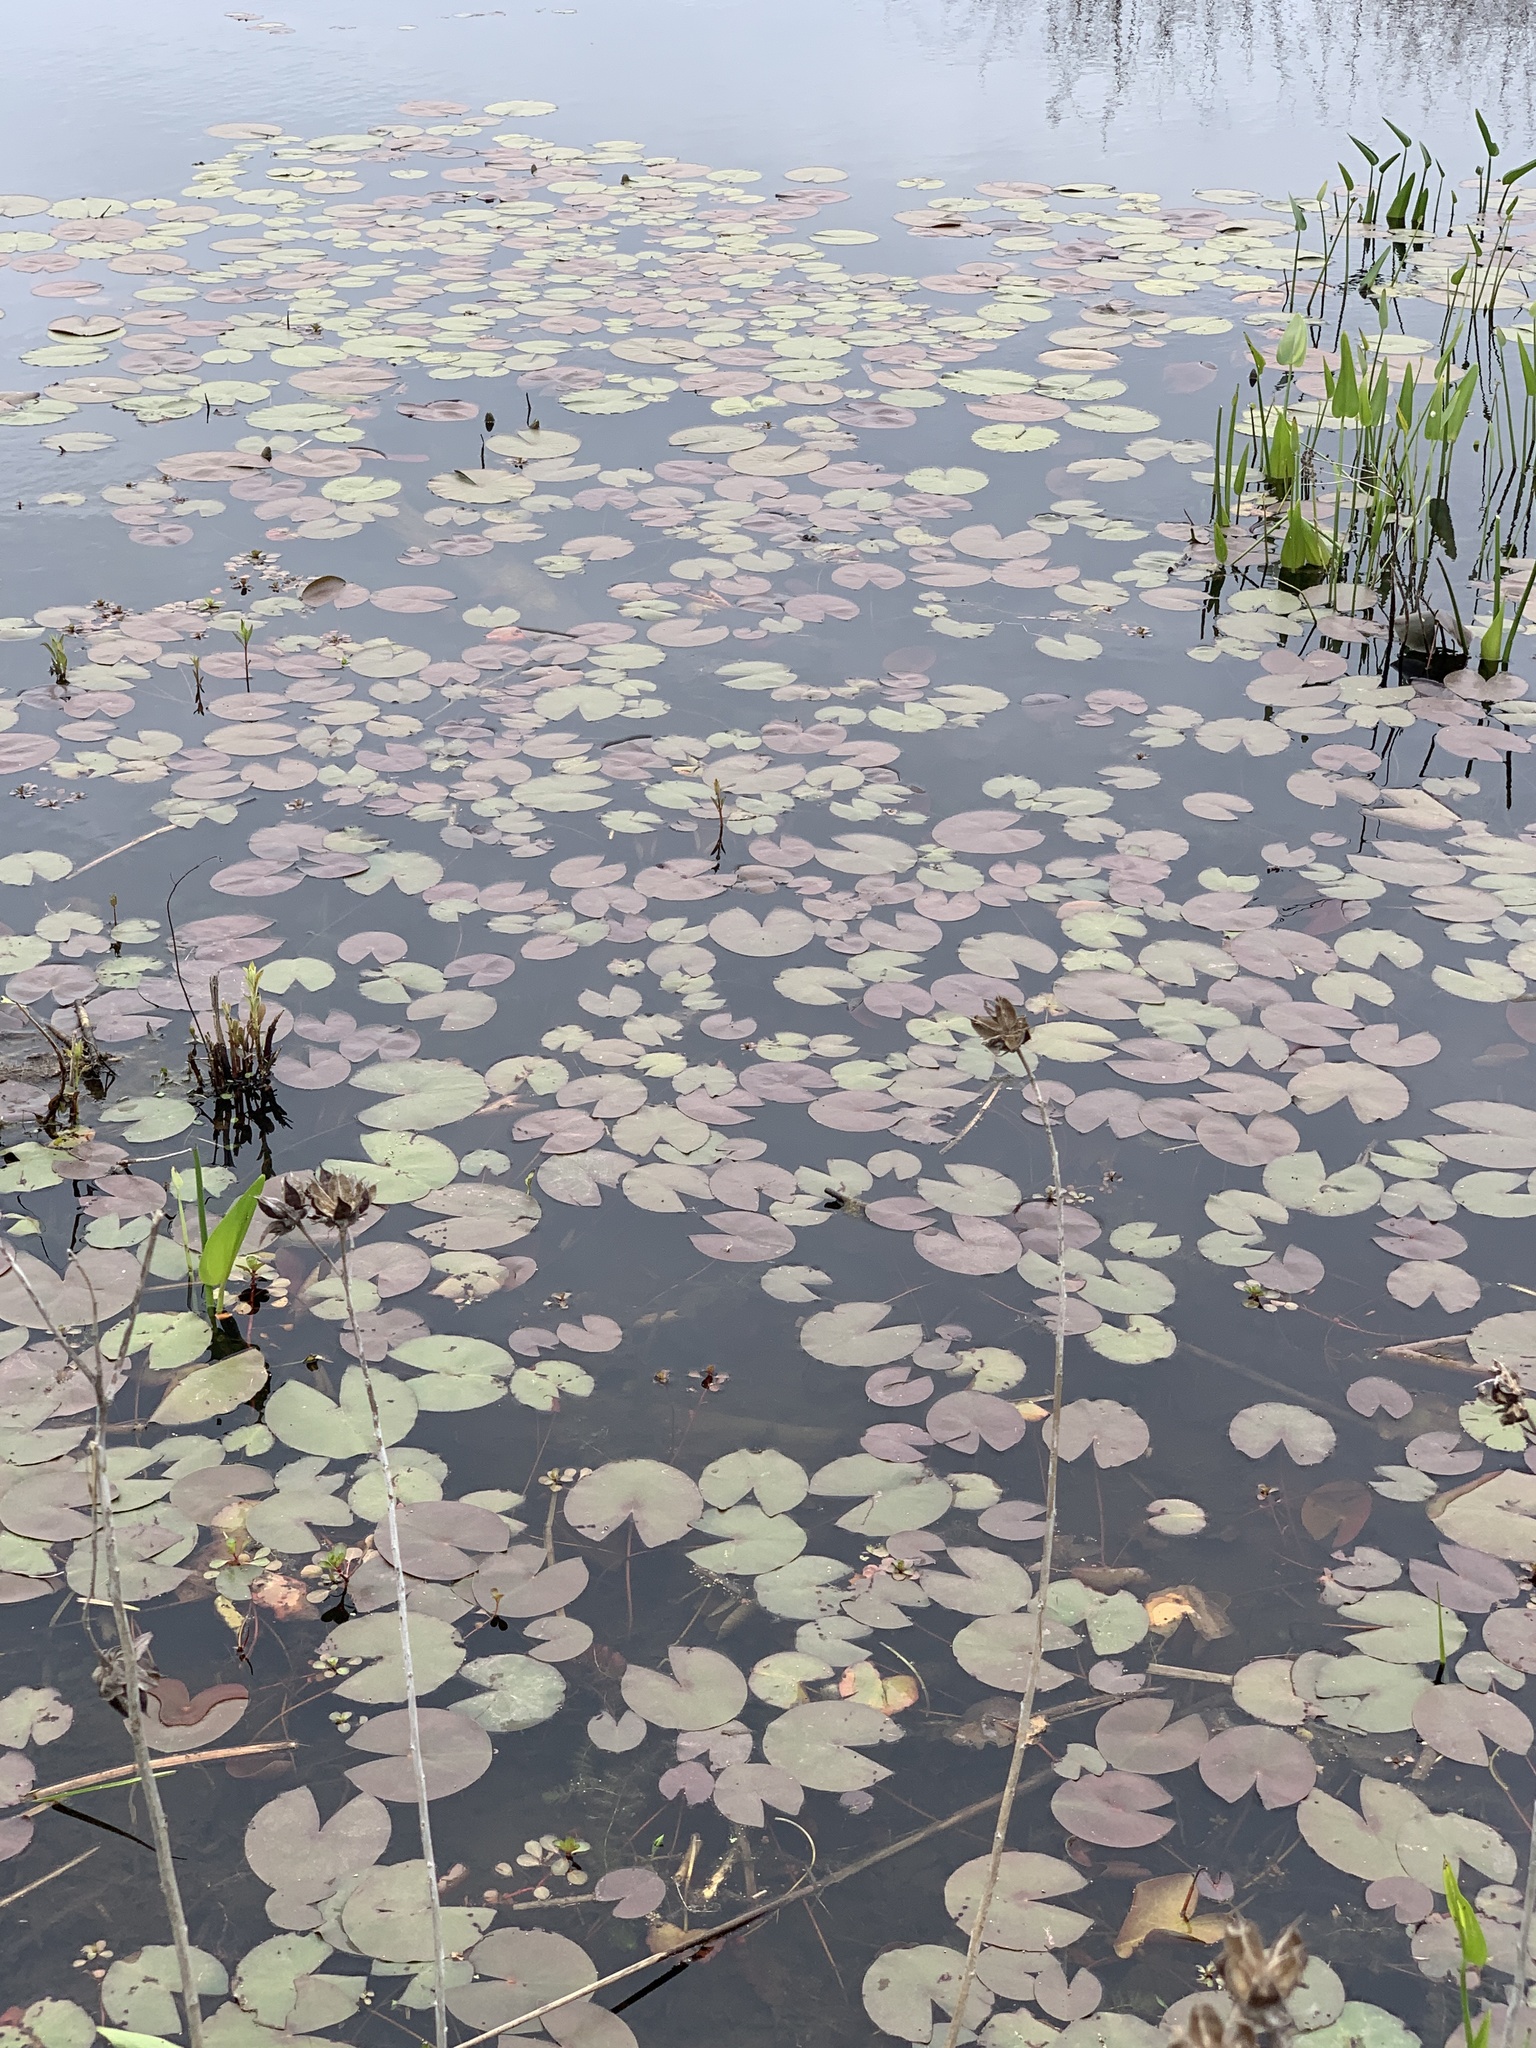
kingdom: Plantae
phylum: Tracheophyta
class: Magnoliopsida
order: Nymphaeales
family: Nymphaeaceae
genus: Nymphaea
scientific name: Nymphaea odorata
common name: Fragrant water-lily
